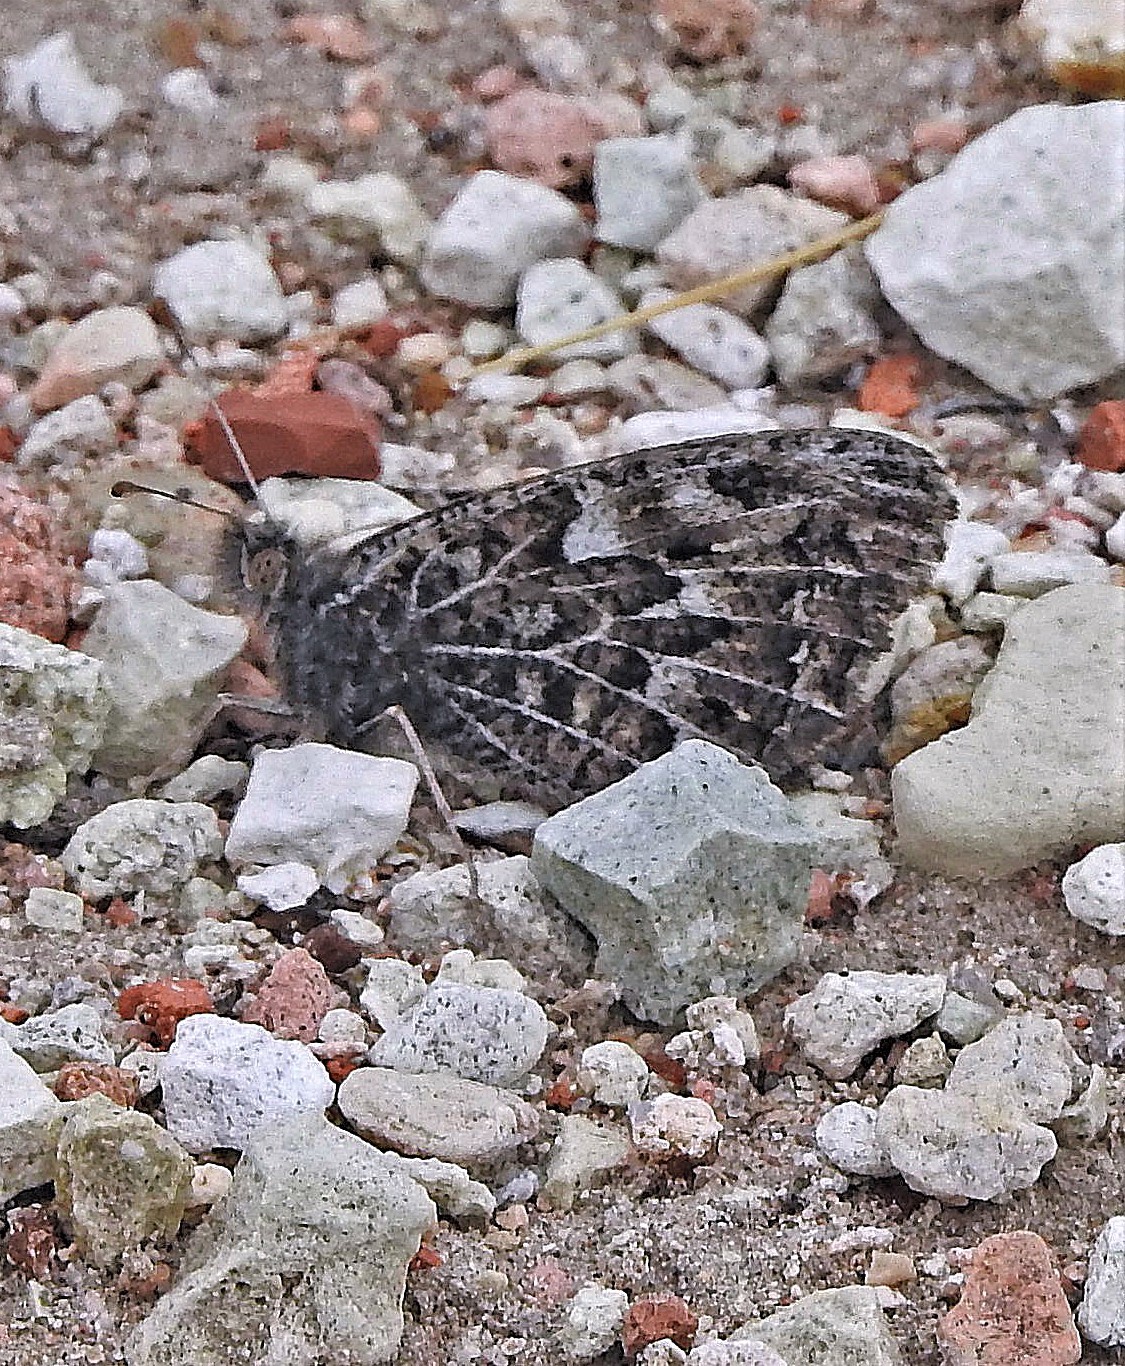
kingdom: Animalia
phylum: Arthropoda
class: Insecta
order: Lepidoptera
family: Nymphalidae
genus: Argyrophorus
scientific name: Argyrophorus
